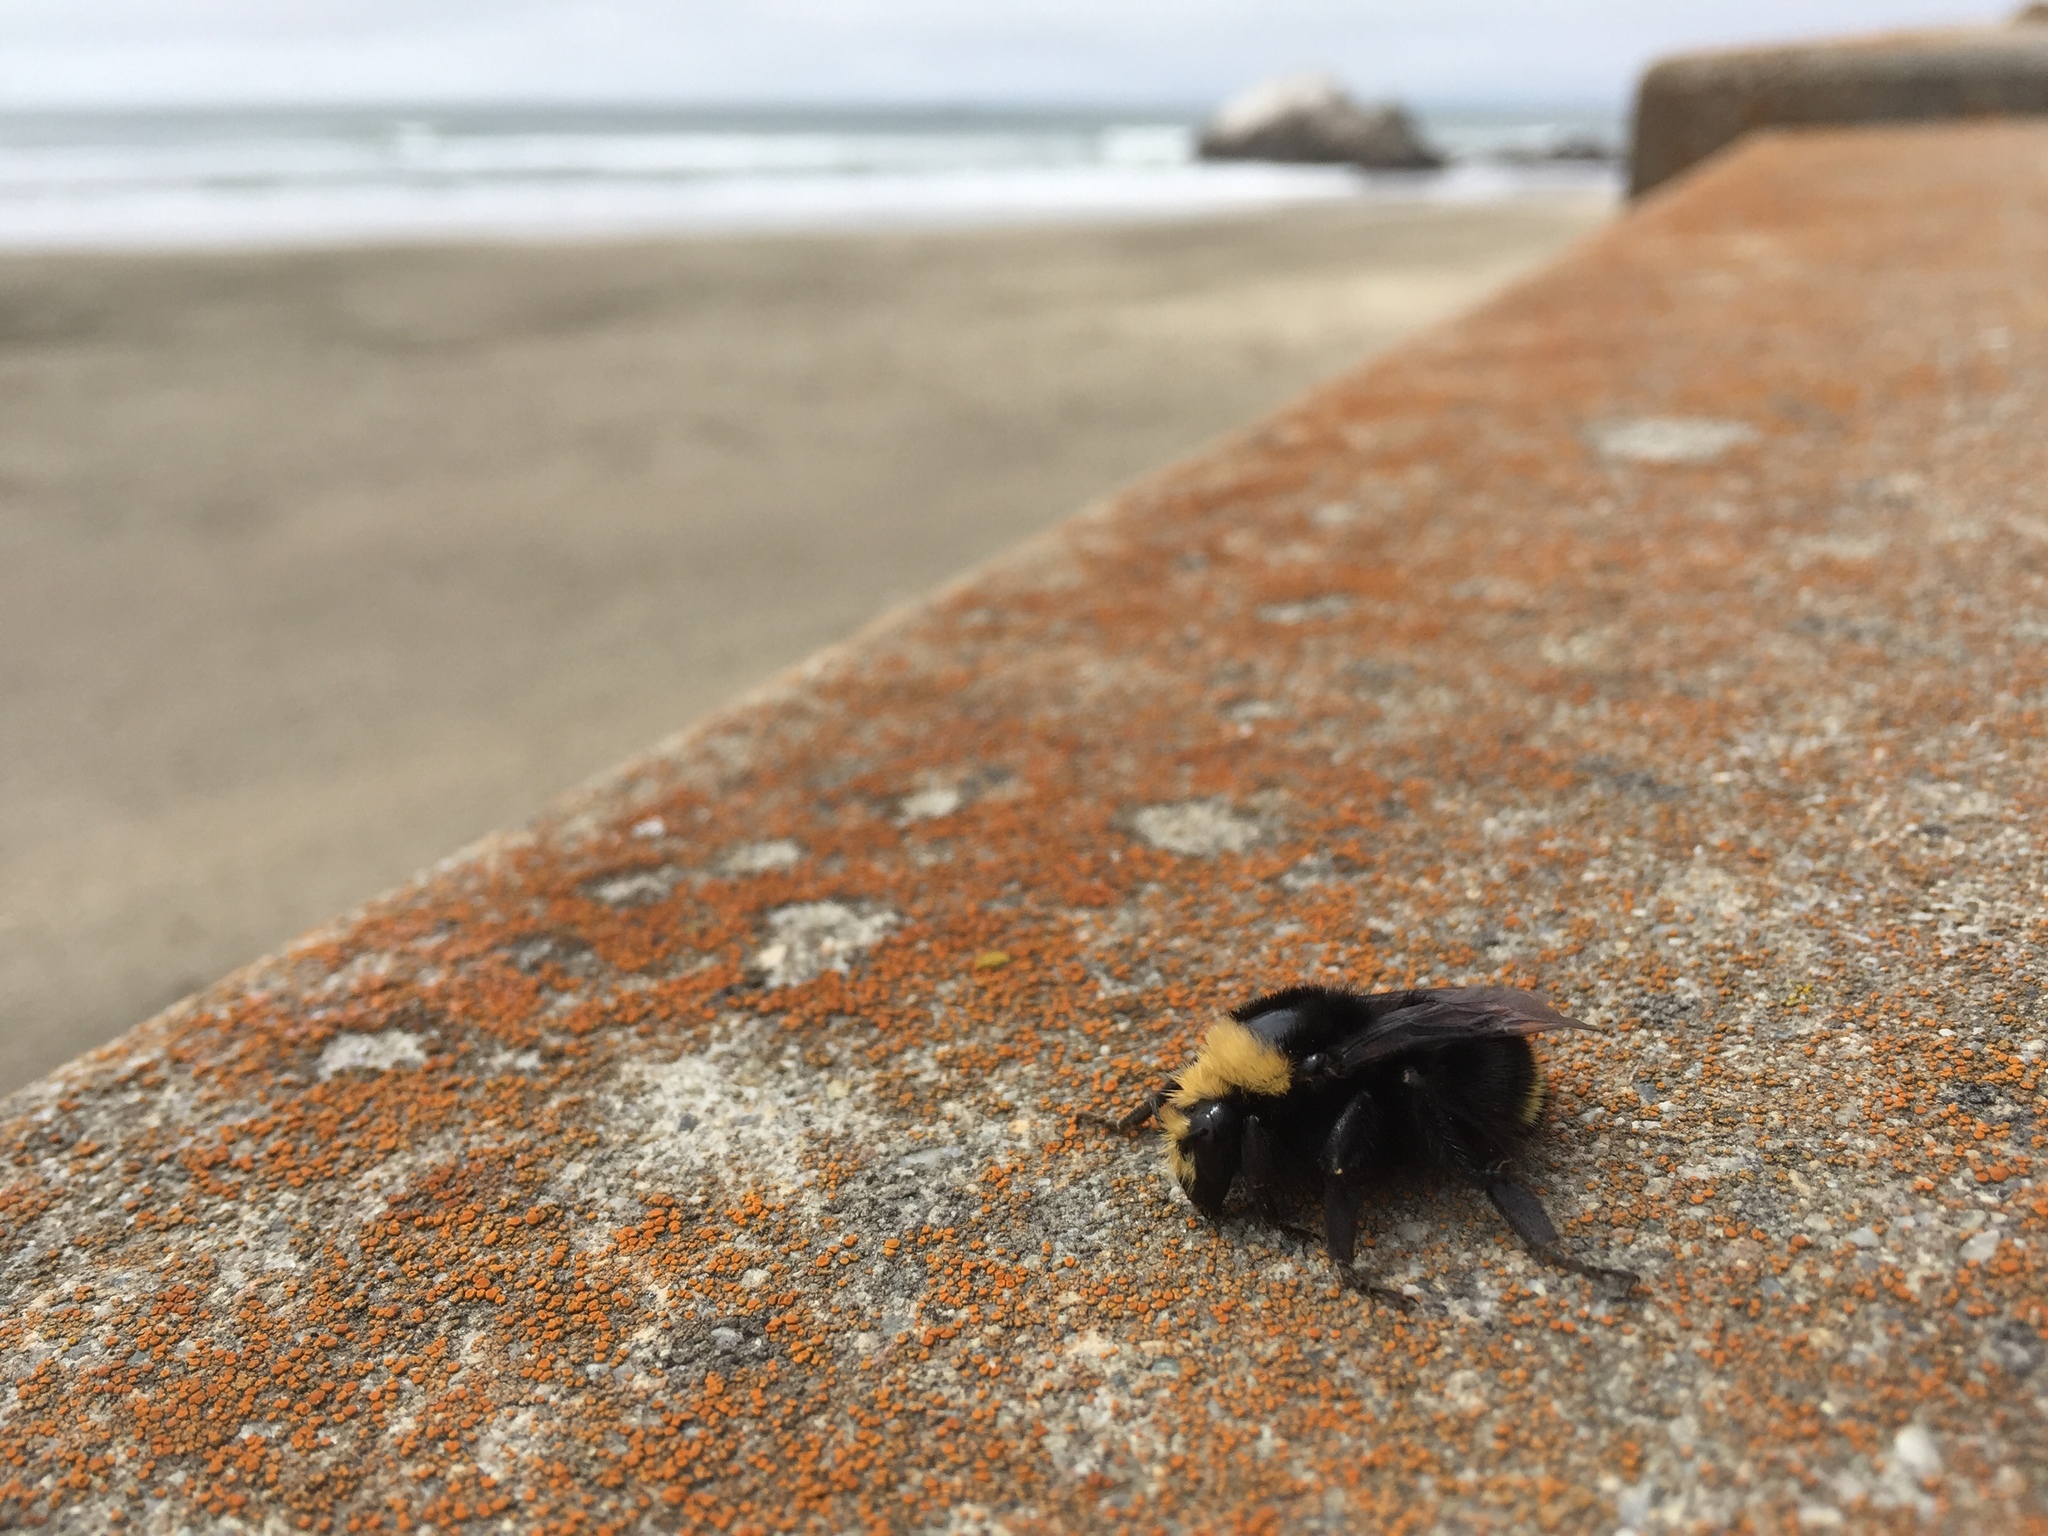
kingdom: Animalia
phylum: Arthropoda
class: Insecta
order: Hymenoptera
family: Apidae
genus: Bombus
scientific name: Bombus vosnesenskii
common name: Vosnesensky bumble bee
